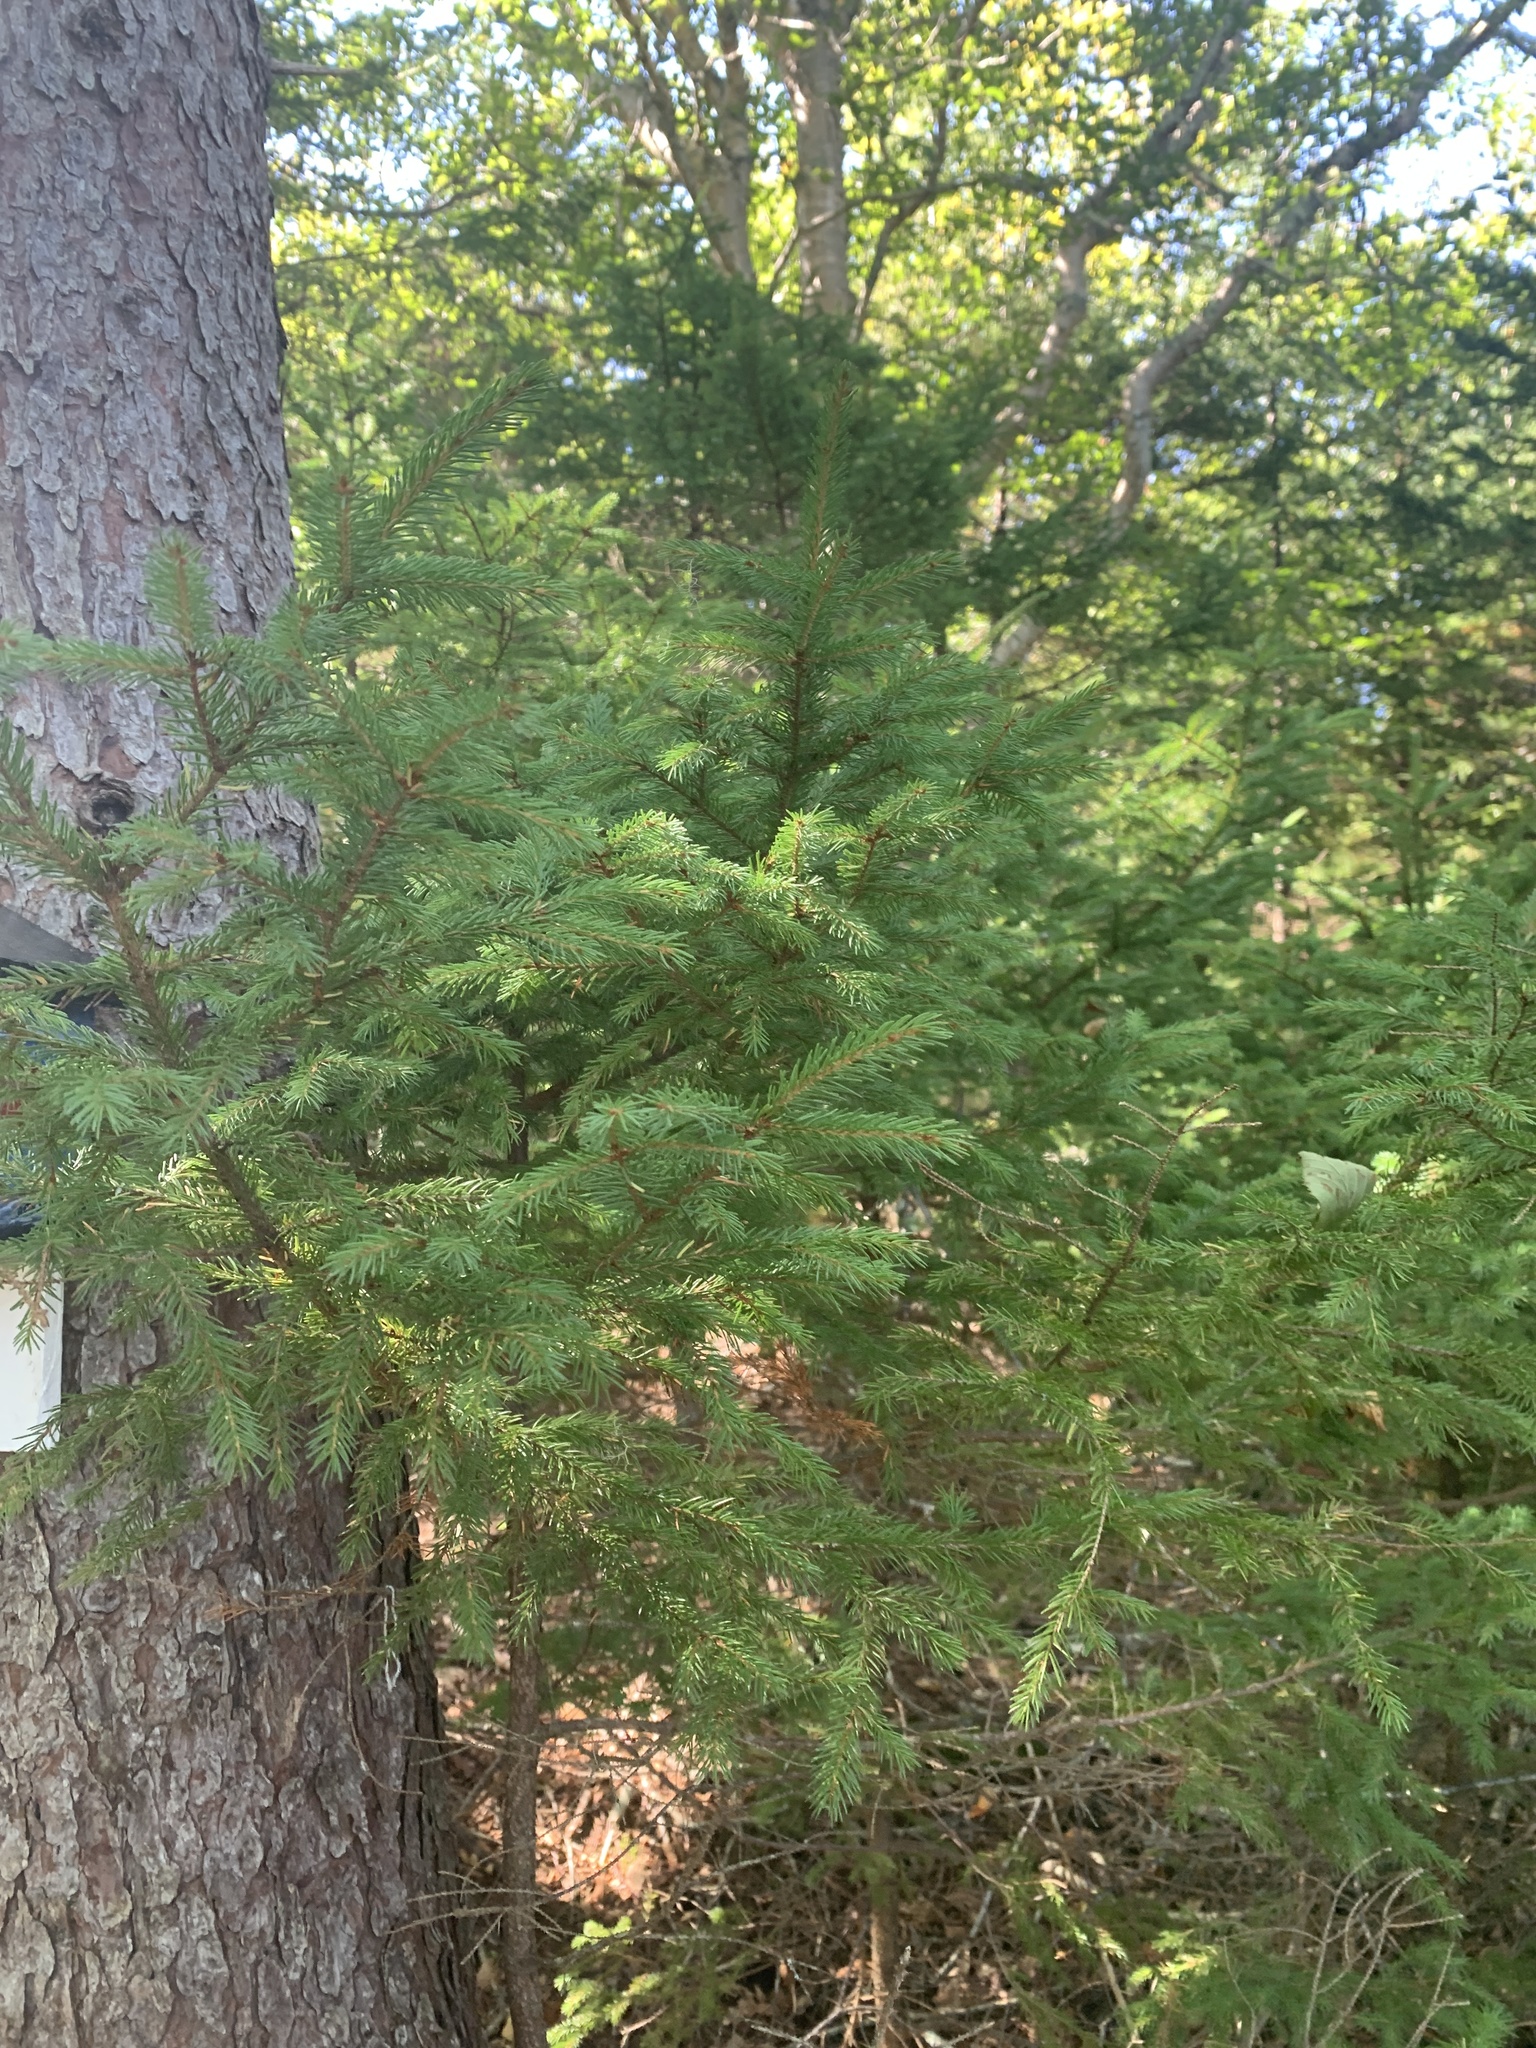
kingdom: Plantae
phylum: Tracheophyta
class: Pinopsida
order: Pinales
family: Pinaceae
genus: Picea
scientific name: Picea rubens
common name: Red spruce
